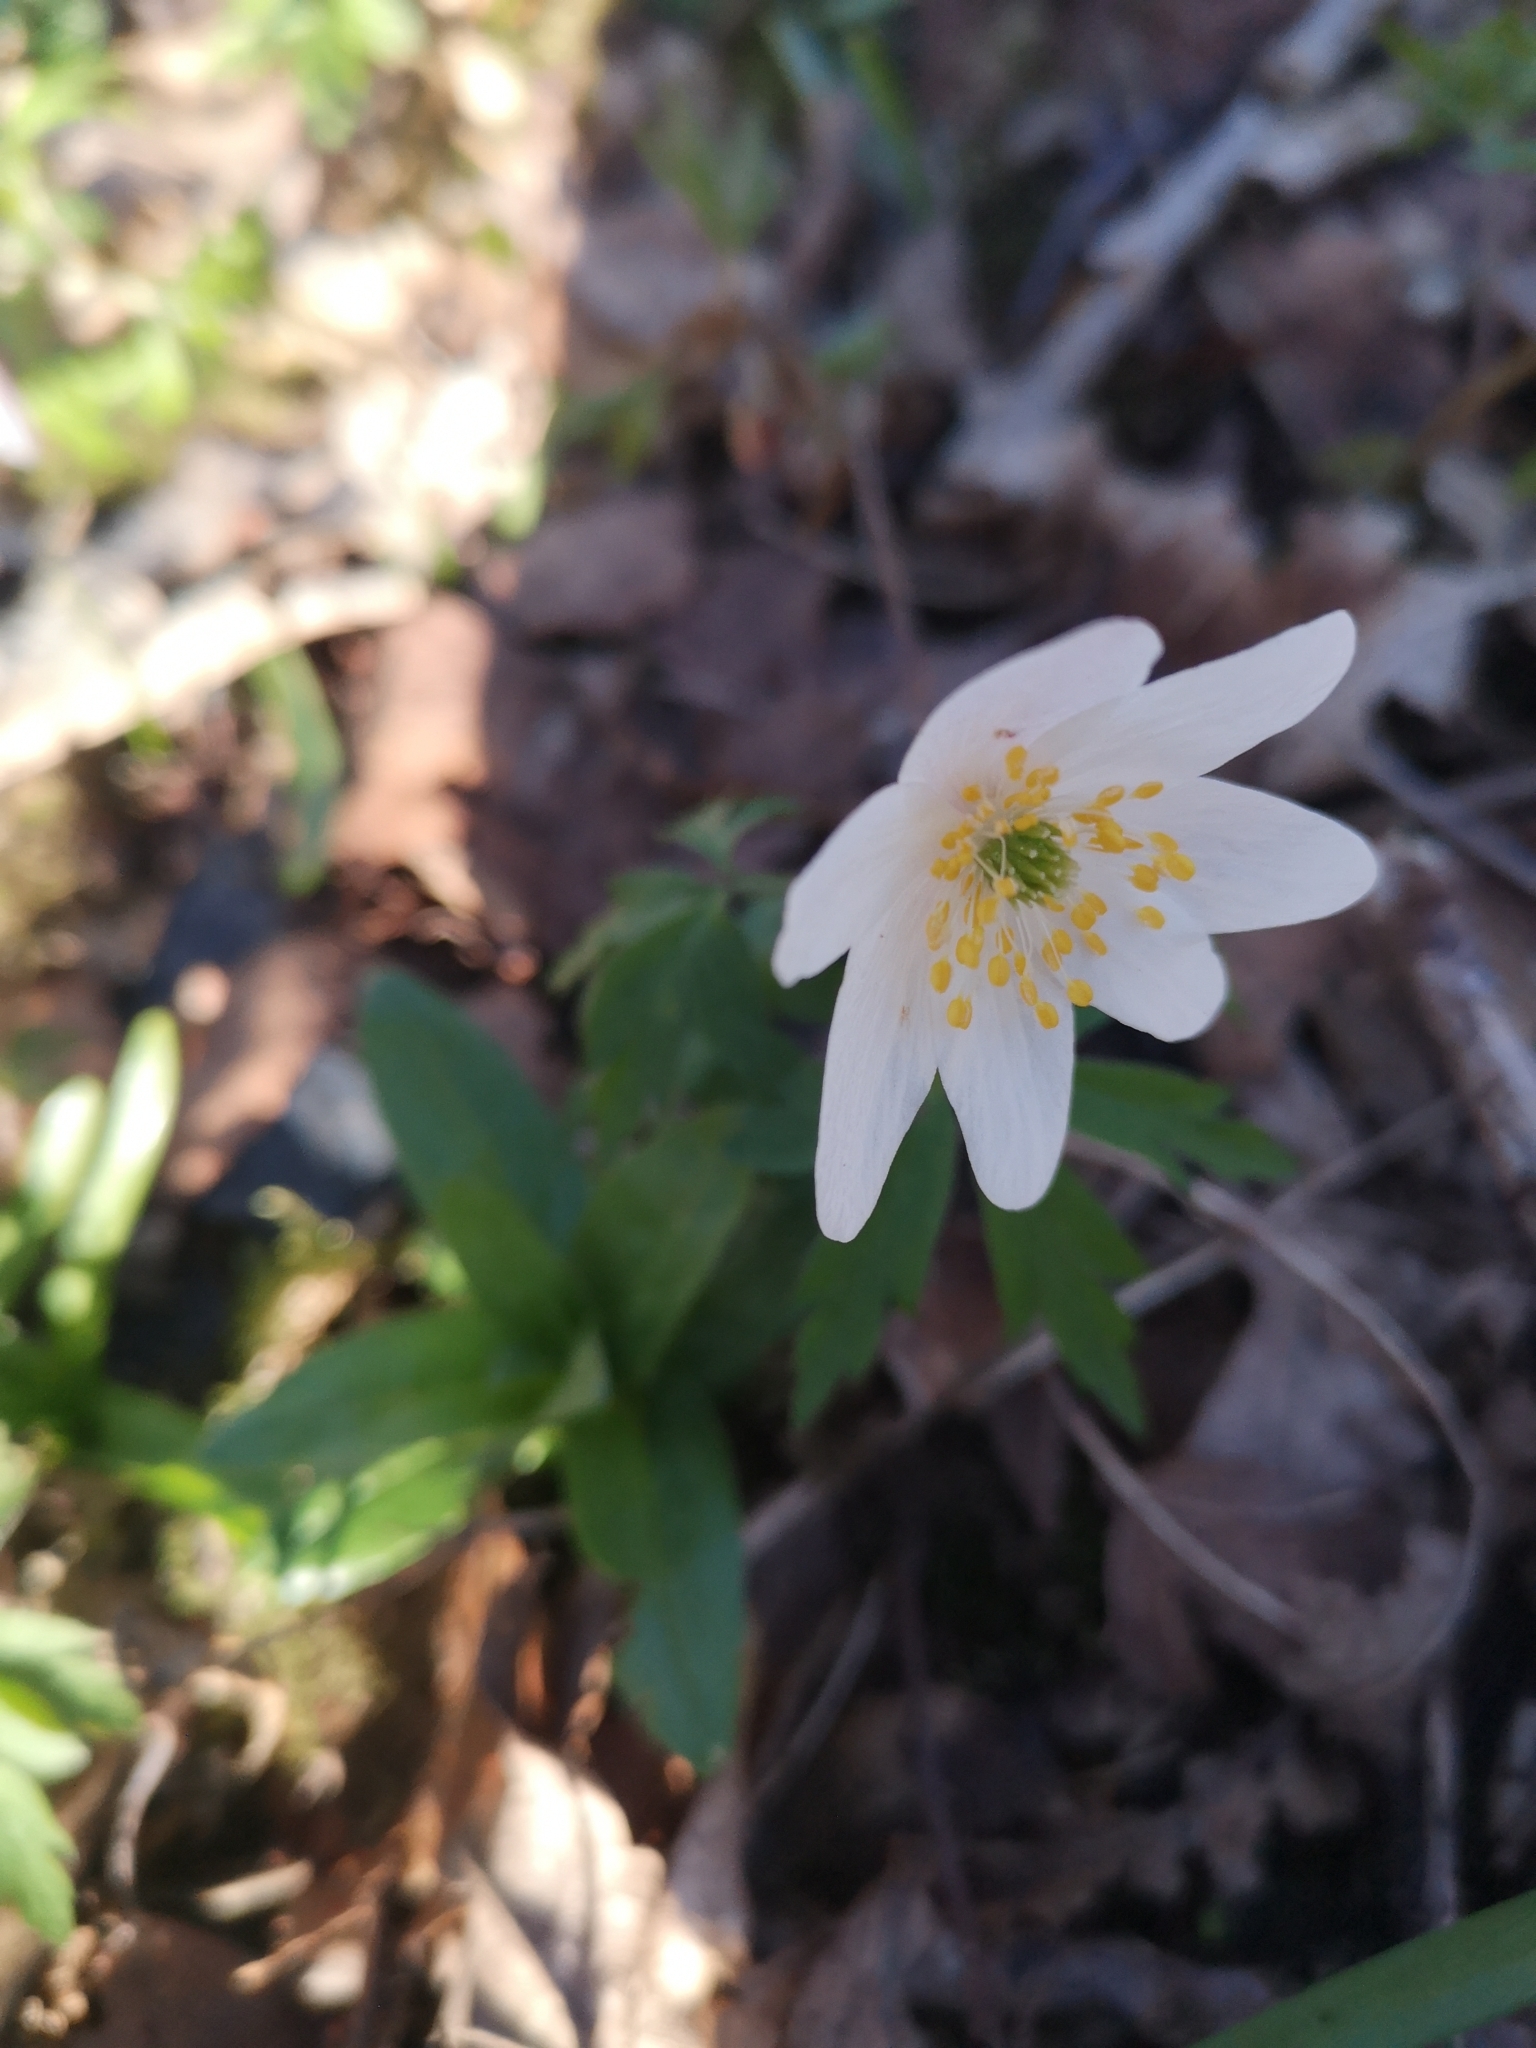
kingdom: Plantae
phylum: Tracheophyta
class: Magnoliopsida
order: Ranunculales
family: Ranunculaceae
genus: Anemone
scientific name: Anemone nemorosa
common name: Wood anemone
